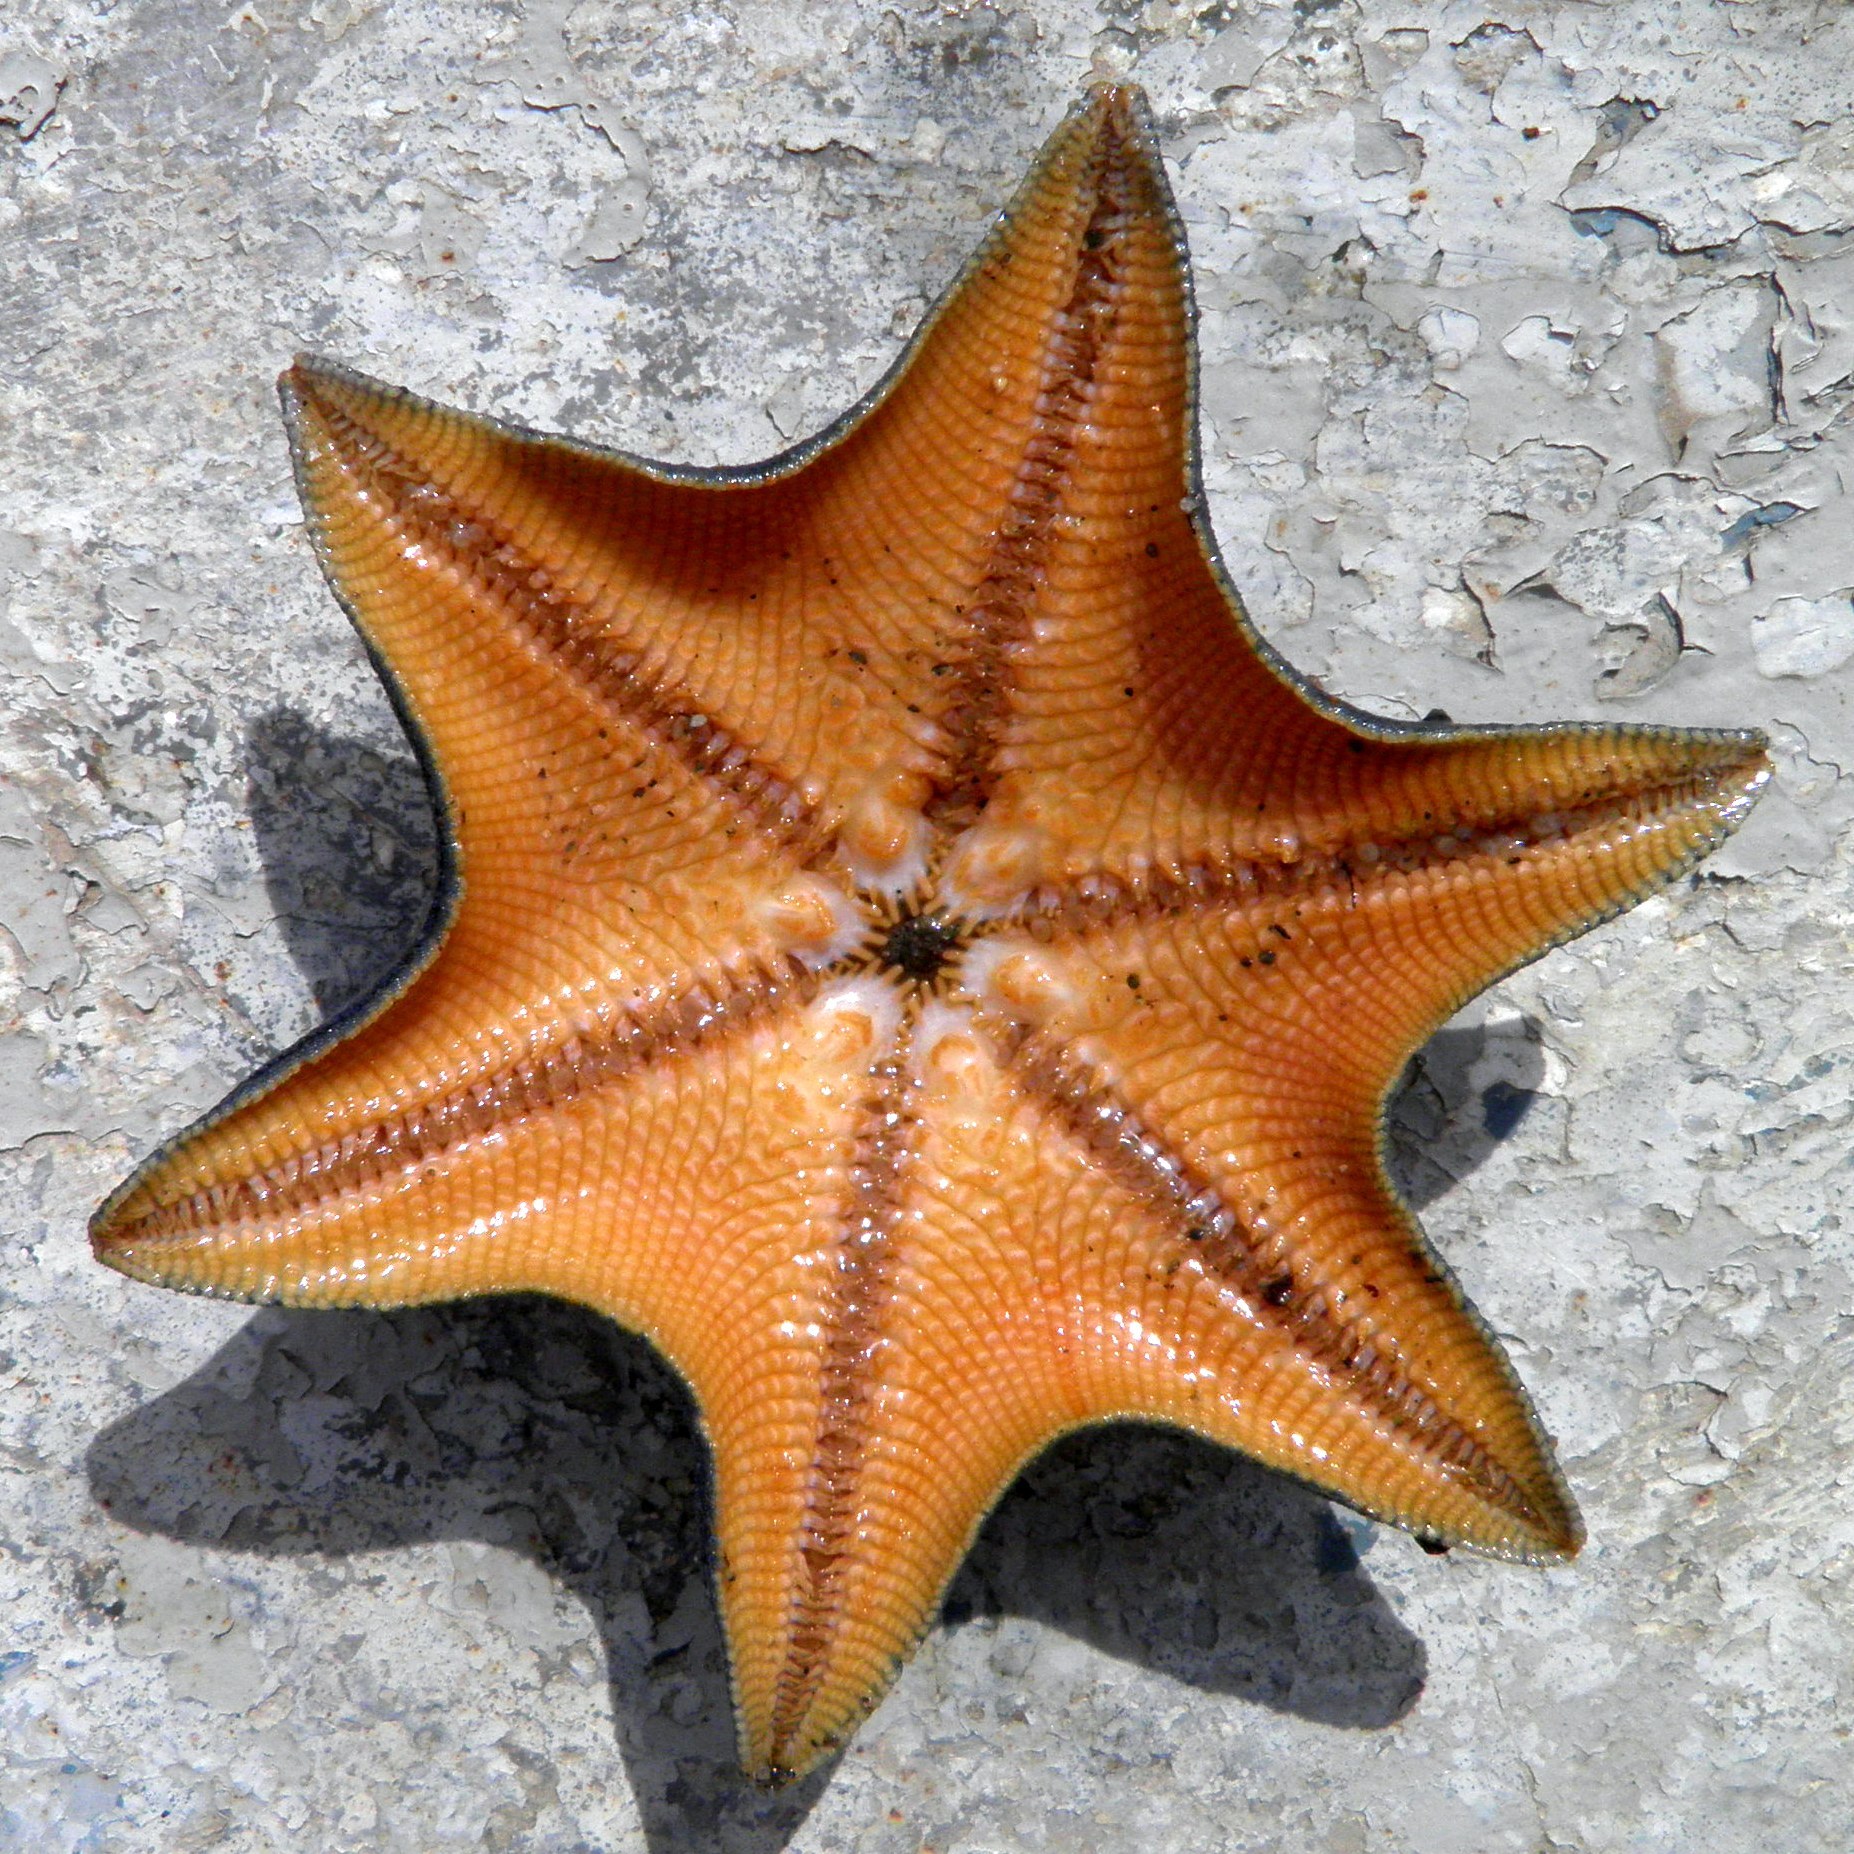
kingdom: Animalia
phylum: Echinodermata
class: Asteroidea
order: Valvatida
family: Asterinidae
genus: Patiria
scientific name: Patiria pectinifera
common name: Blue bat star
